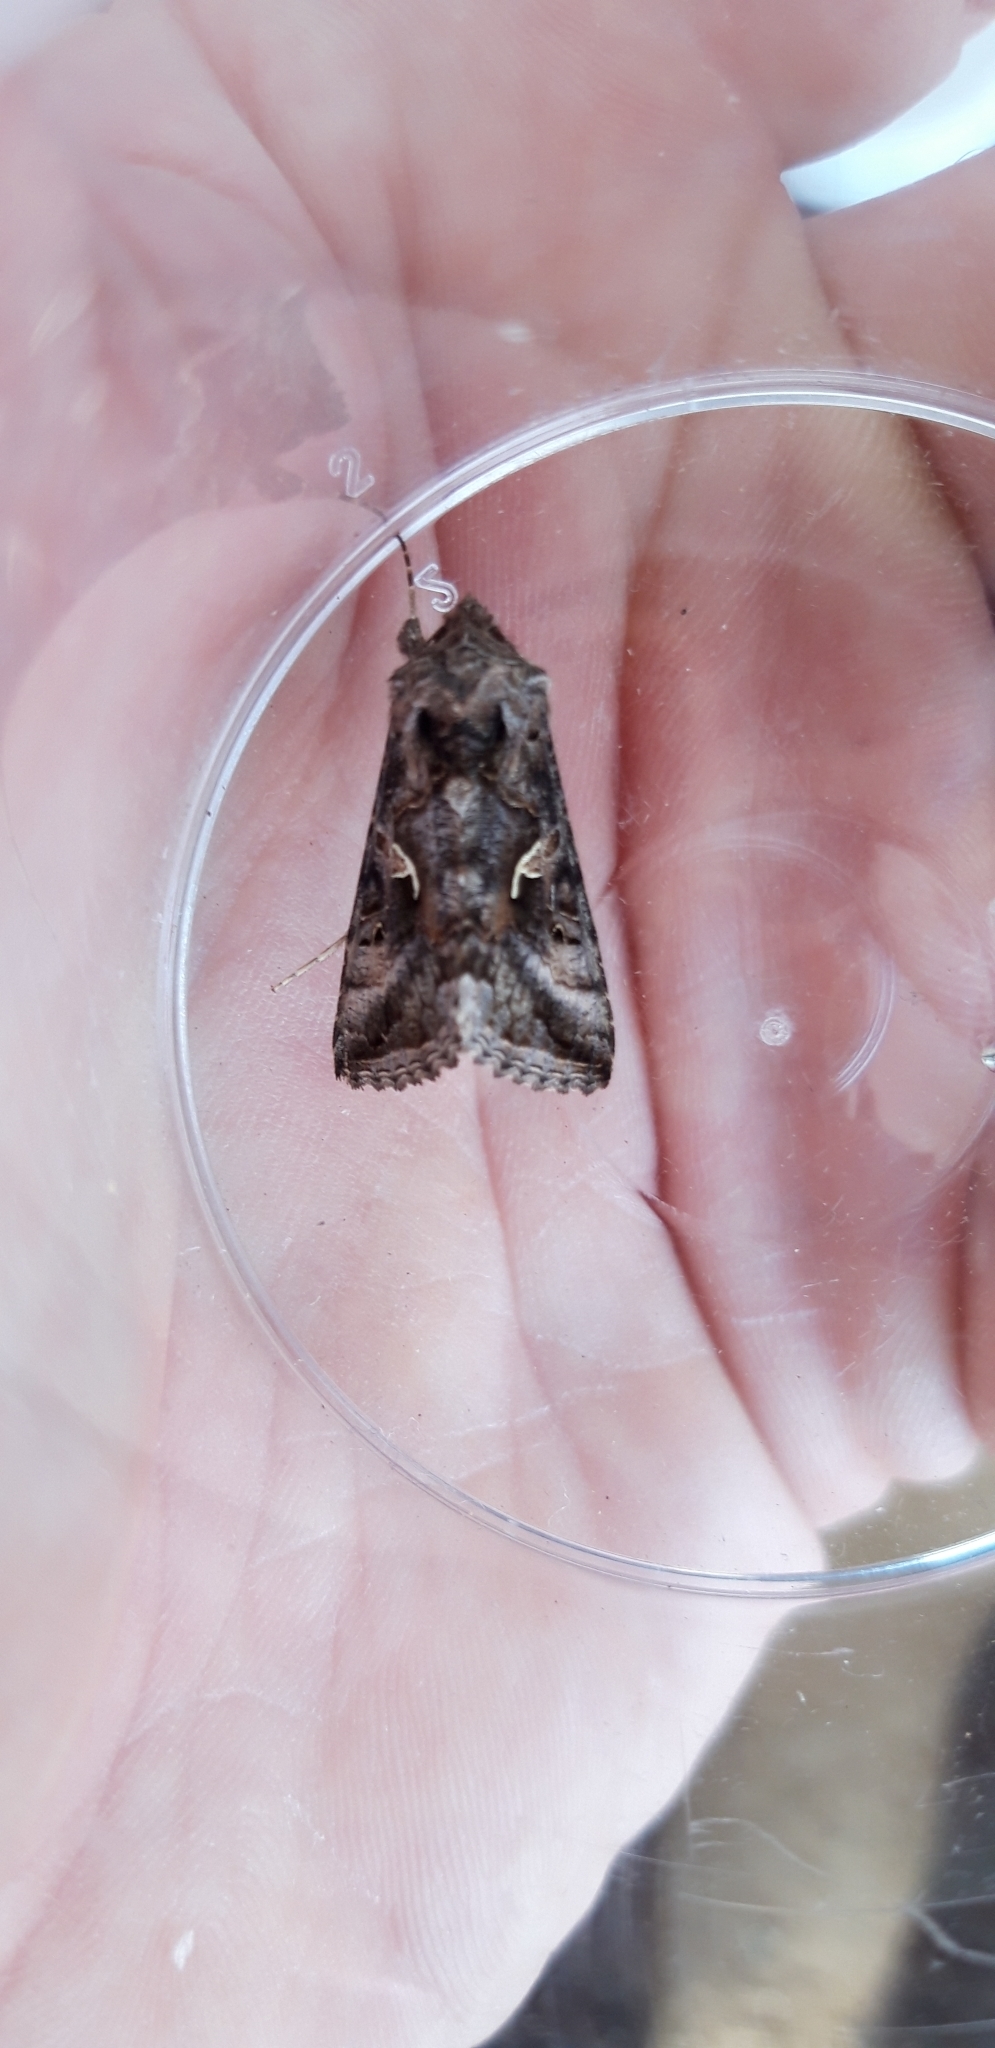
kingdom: Animalia
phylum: Arthropoda
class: Insecta
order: Lepidoptera
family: Noctuidae
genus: Autographa
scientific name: Autographa gamma
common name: Silver y
